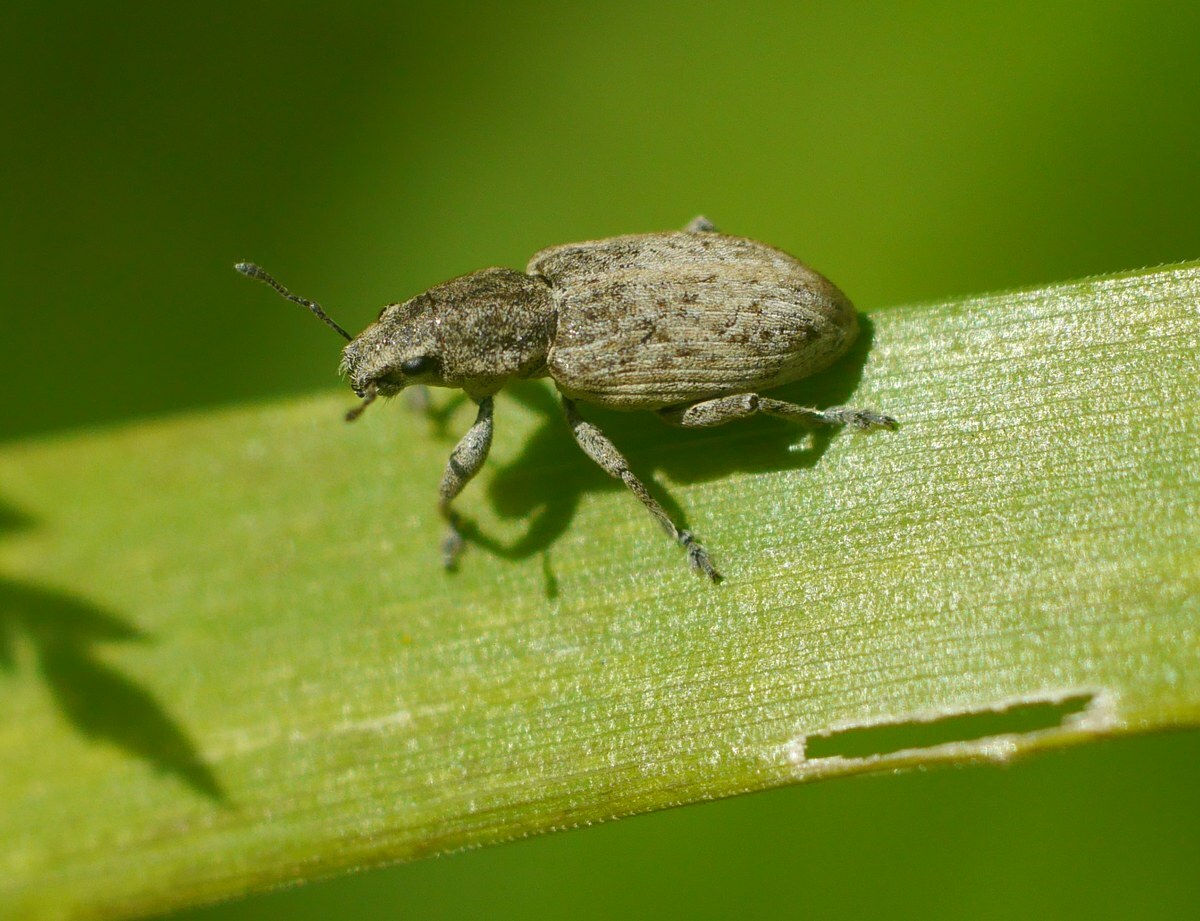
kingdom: Animalia
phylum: Arthropoda
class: Insecta
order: Coleoptera
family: Curculionidae
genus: Tanymecus
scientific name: Tanymecus dilaticollis
